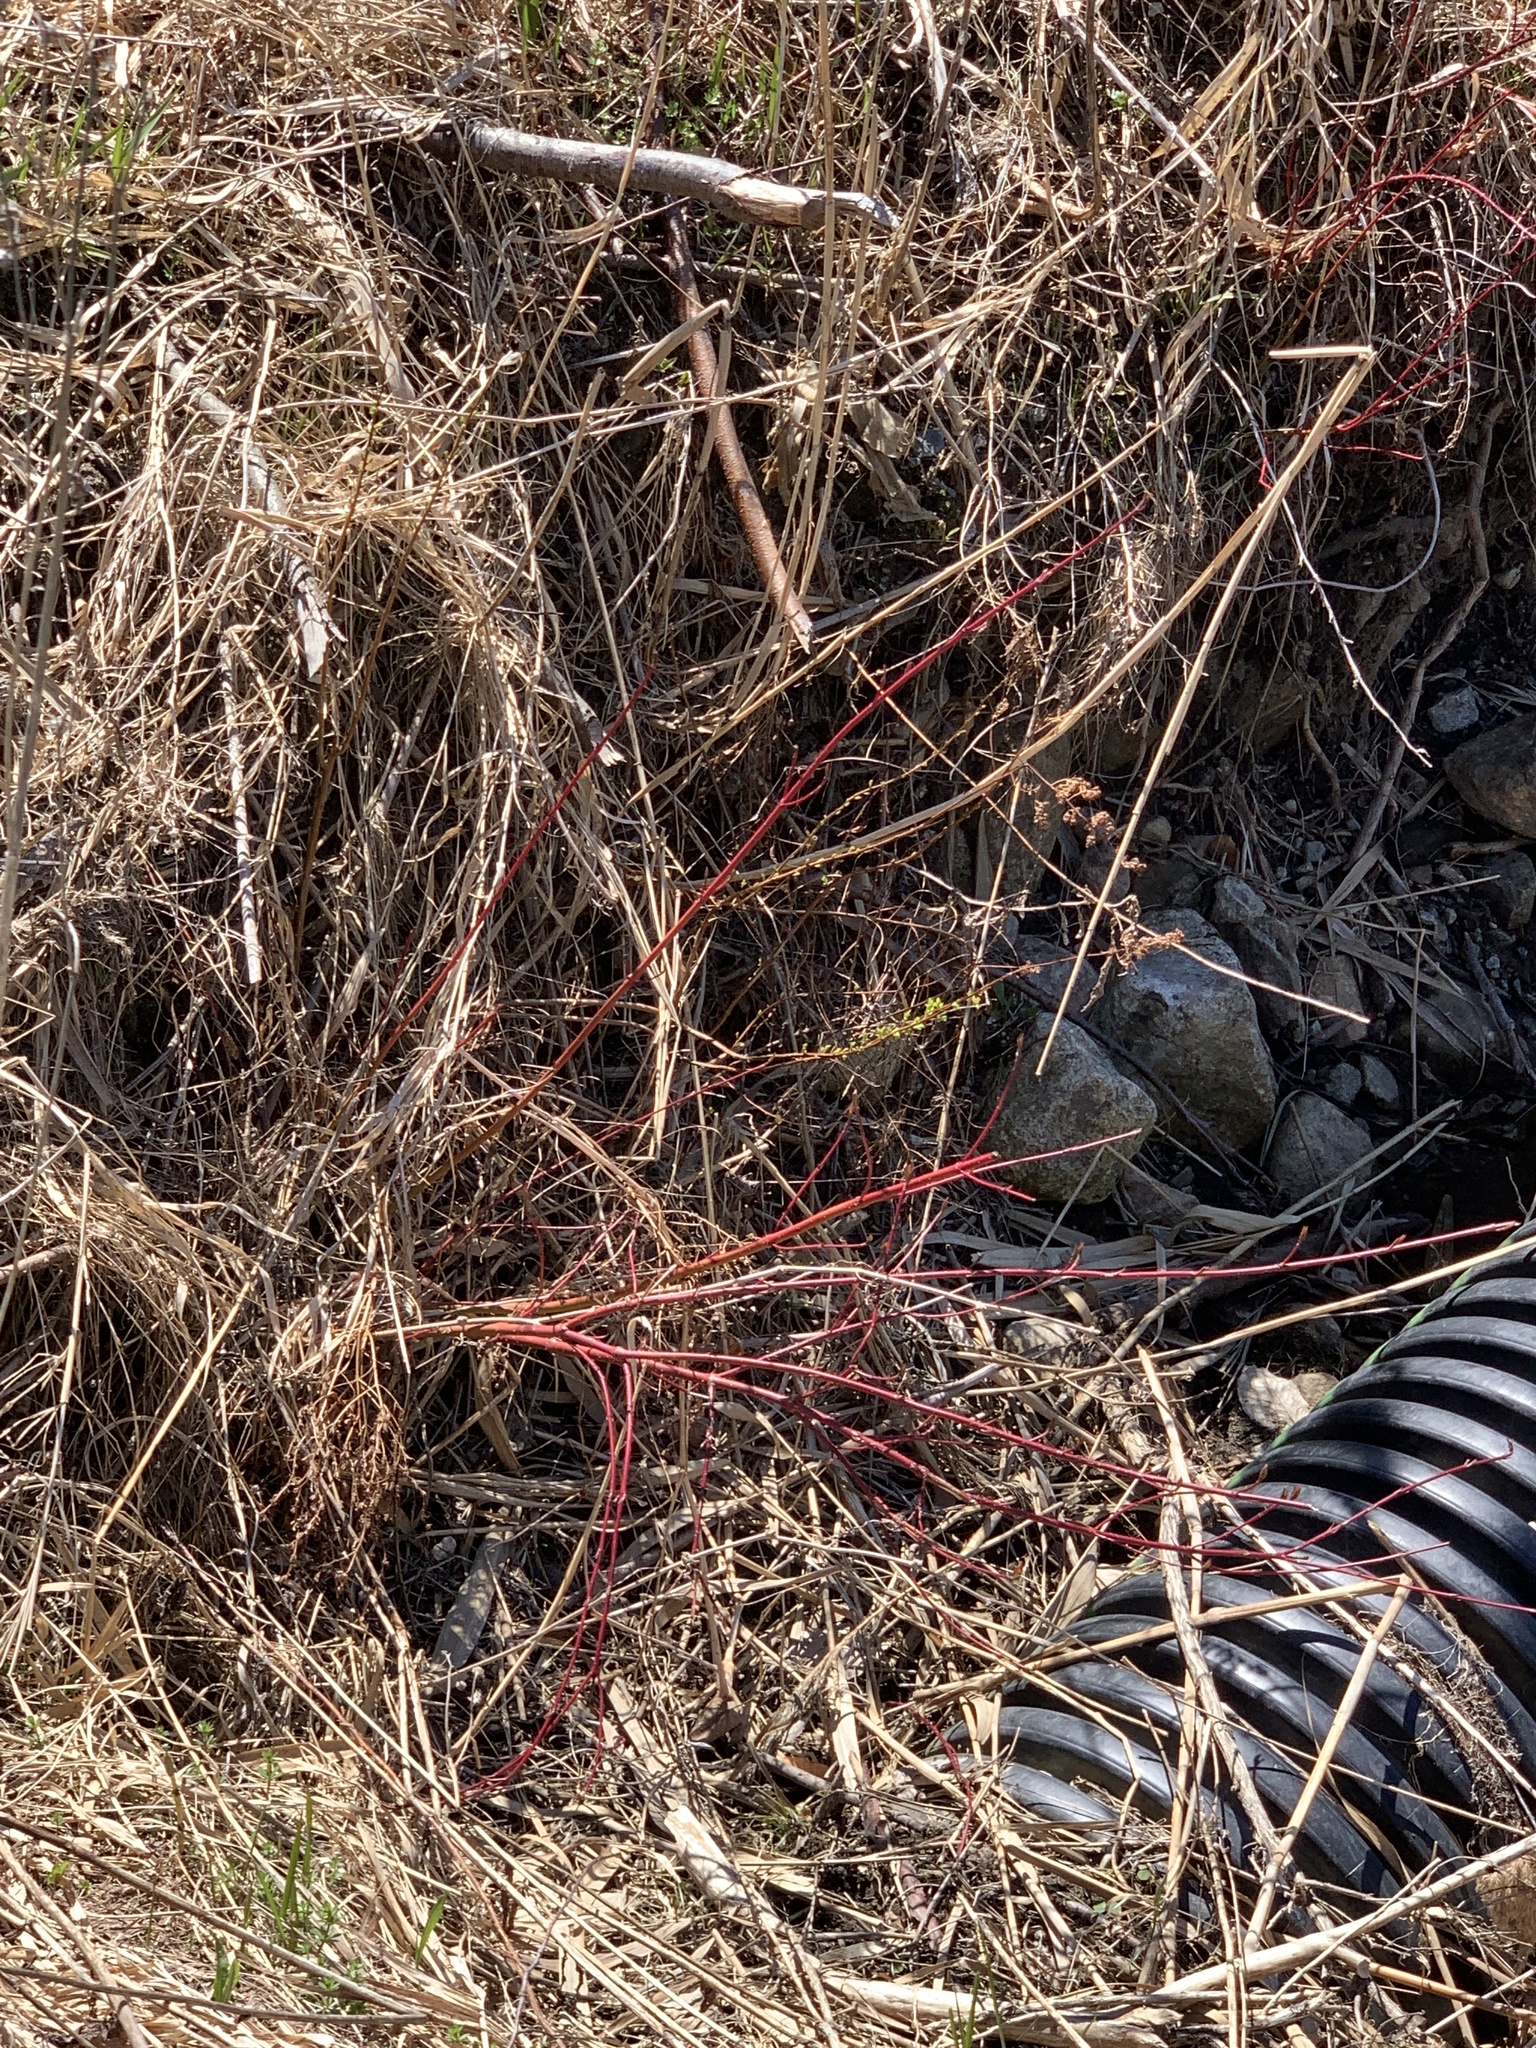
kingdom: Plantae
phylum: Tracheophyta
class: Magnoliopsida
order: Cornales
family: Cornaceae
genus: Cornus
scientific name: Cornus sericea
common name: Red-osier dogwood
